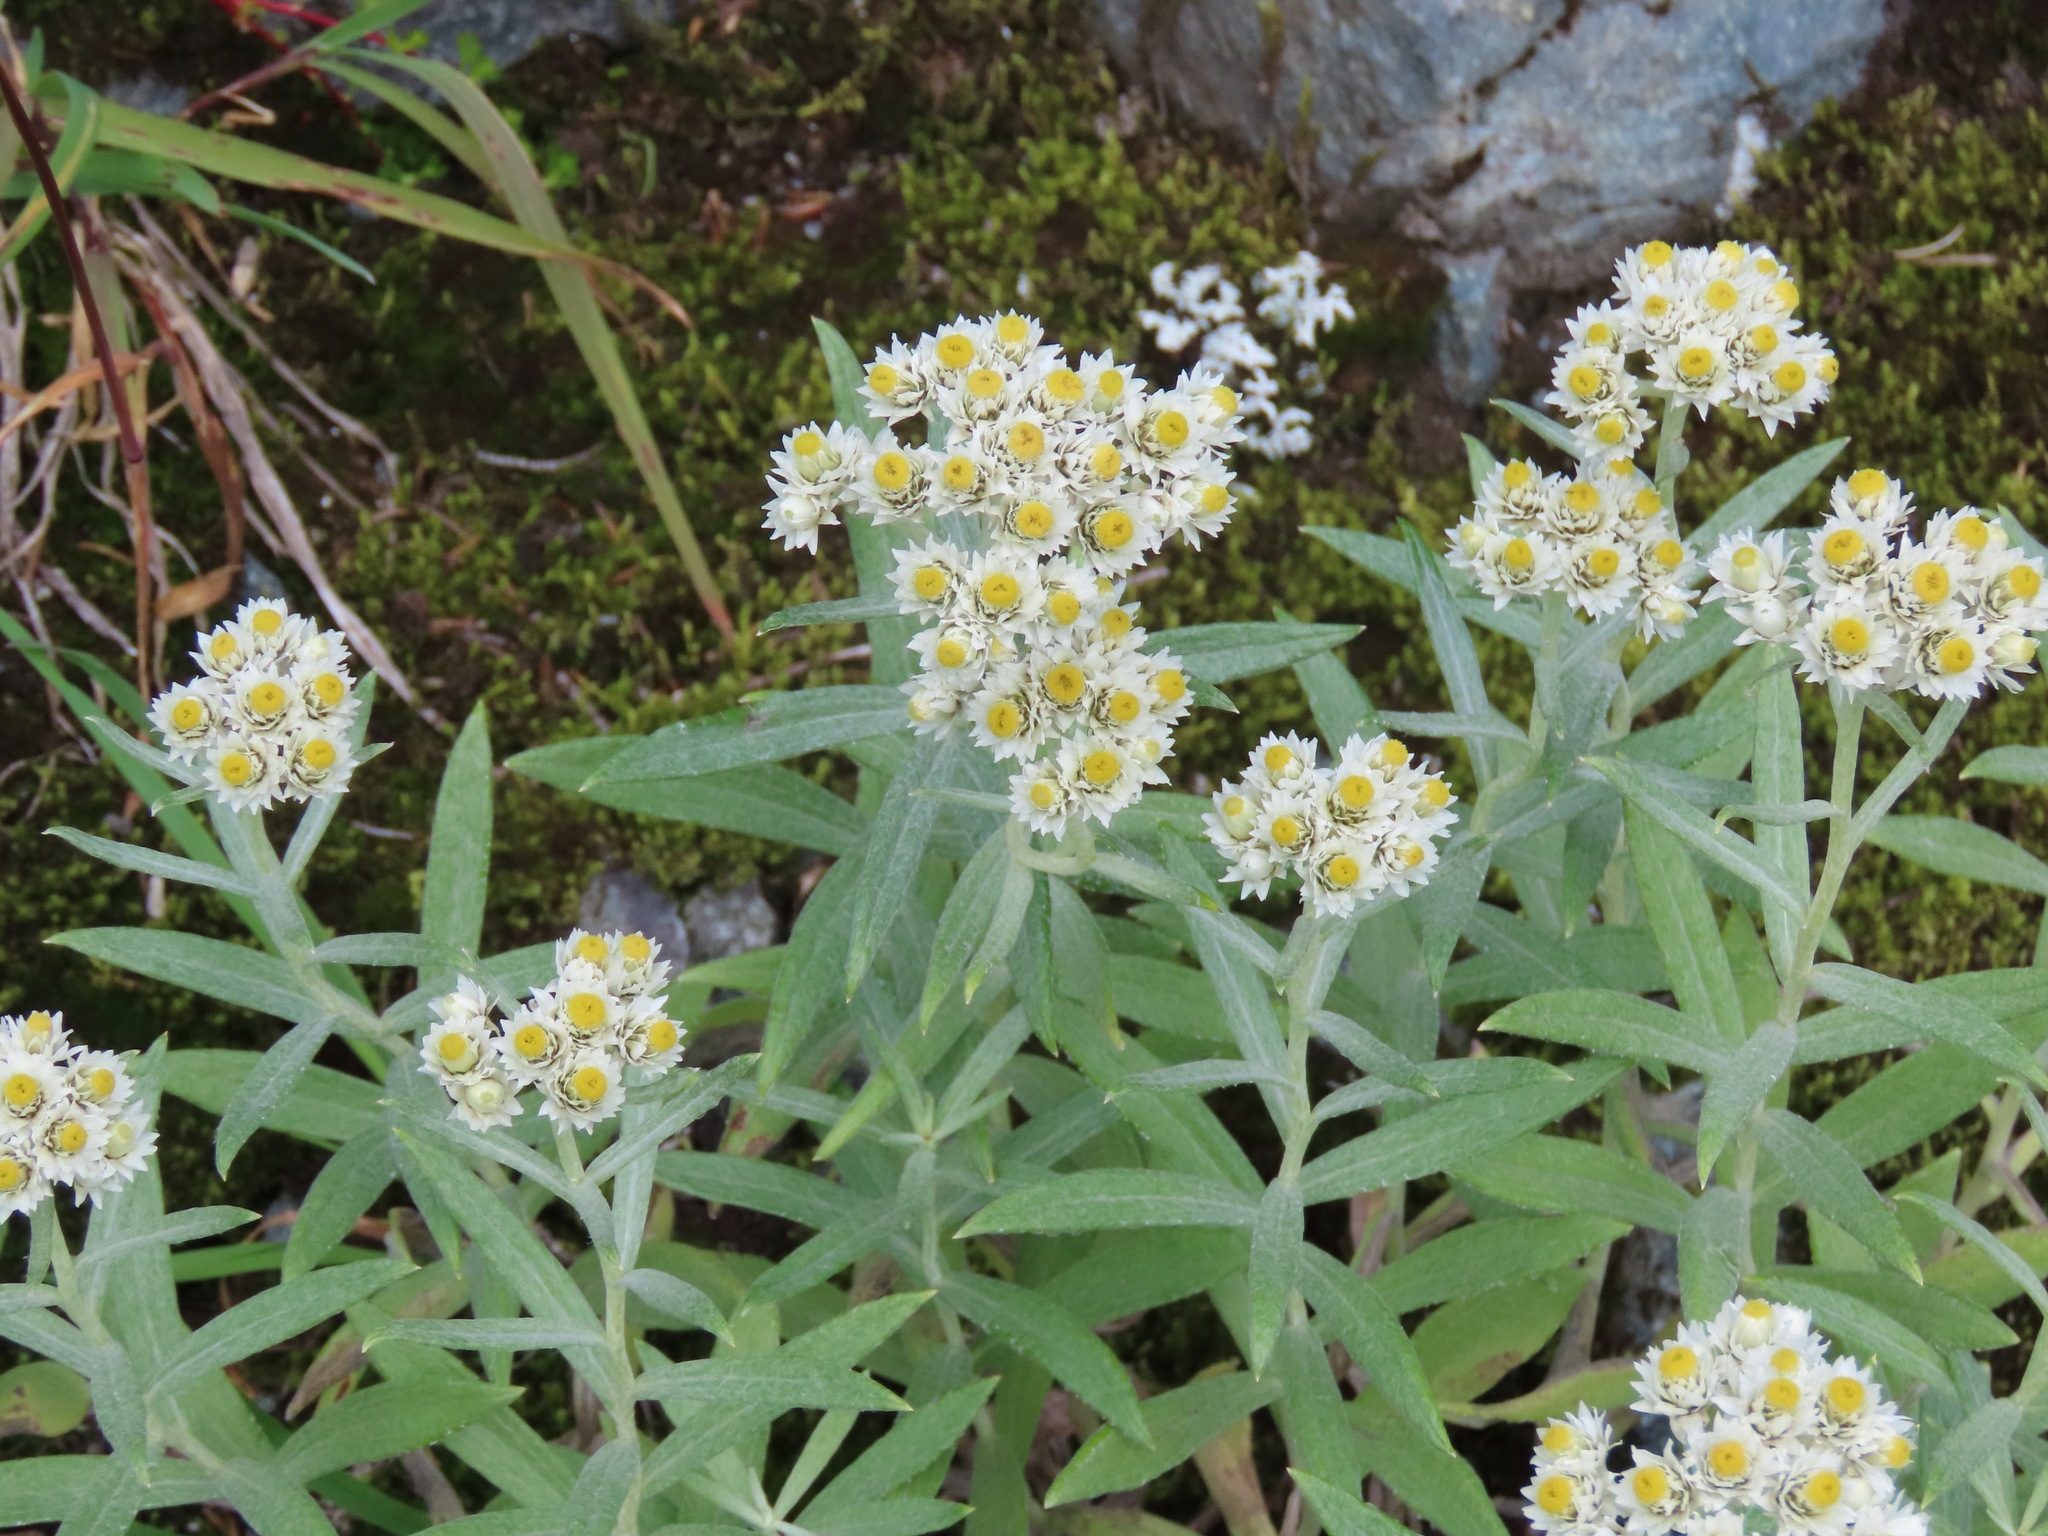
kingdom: Plantae
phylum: Tracheophyta
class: Magnoliopsida
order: Asterales
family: Asteraceae
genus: Anaphalis
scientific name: Anaphalis margaritacea
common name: Pearly everlasting
